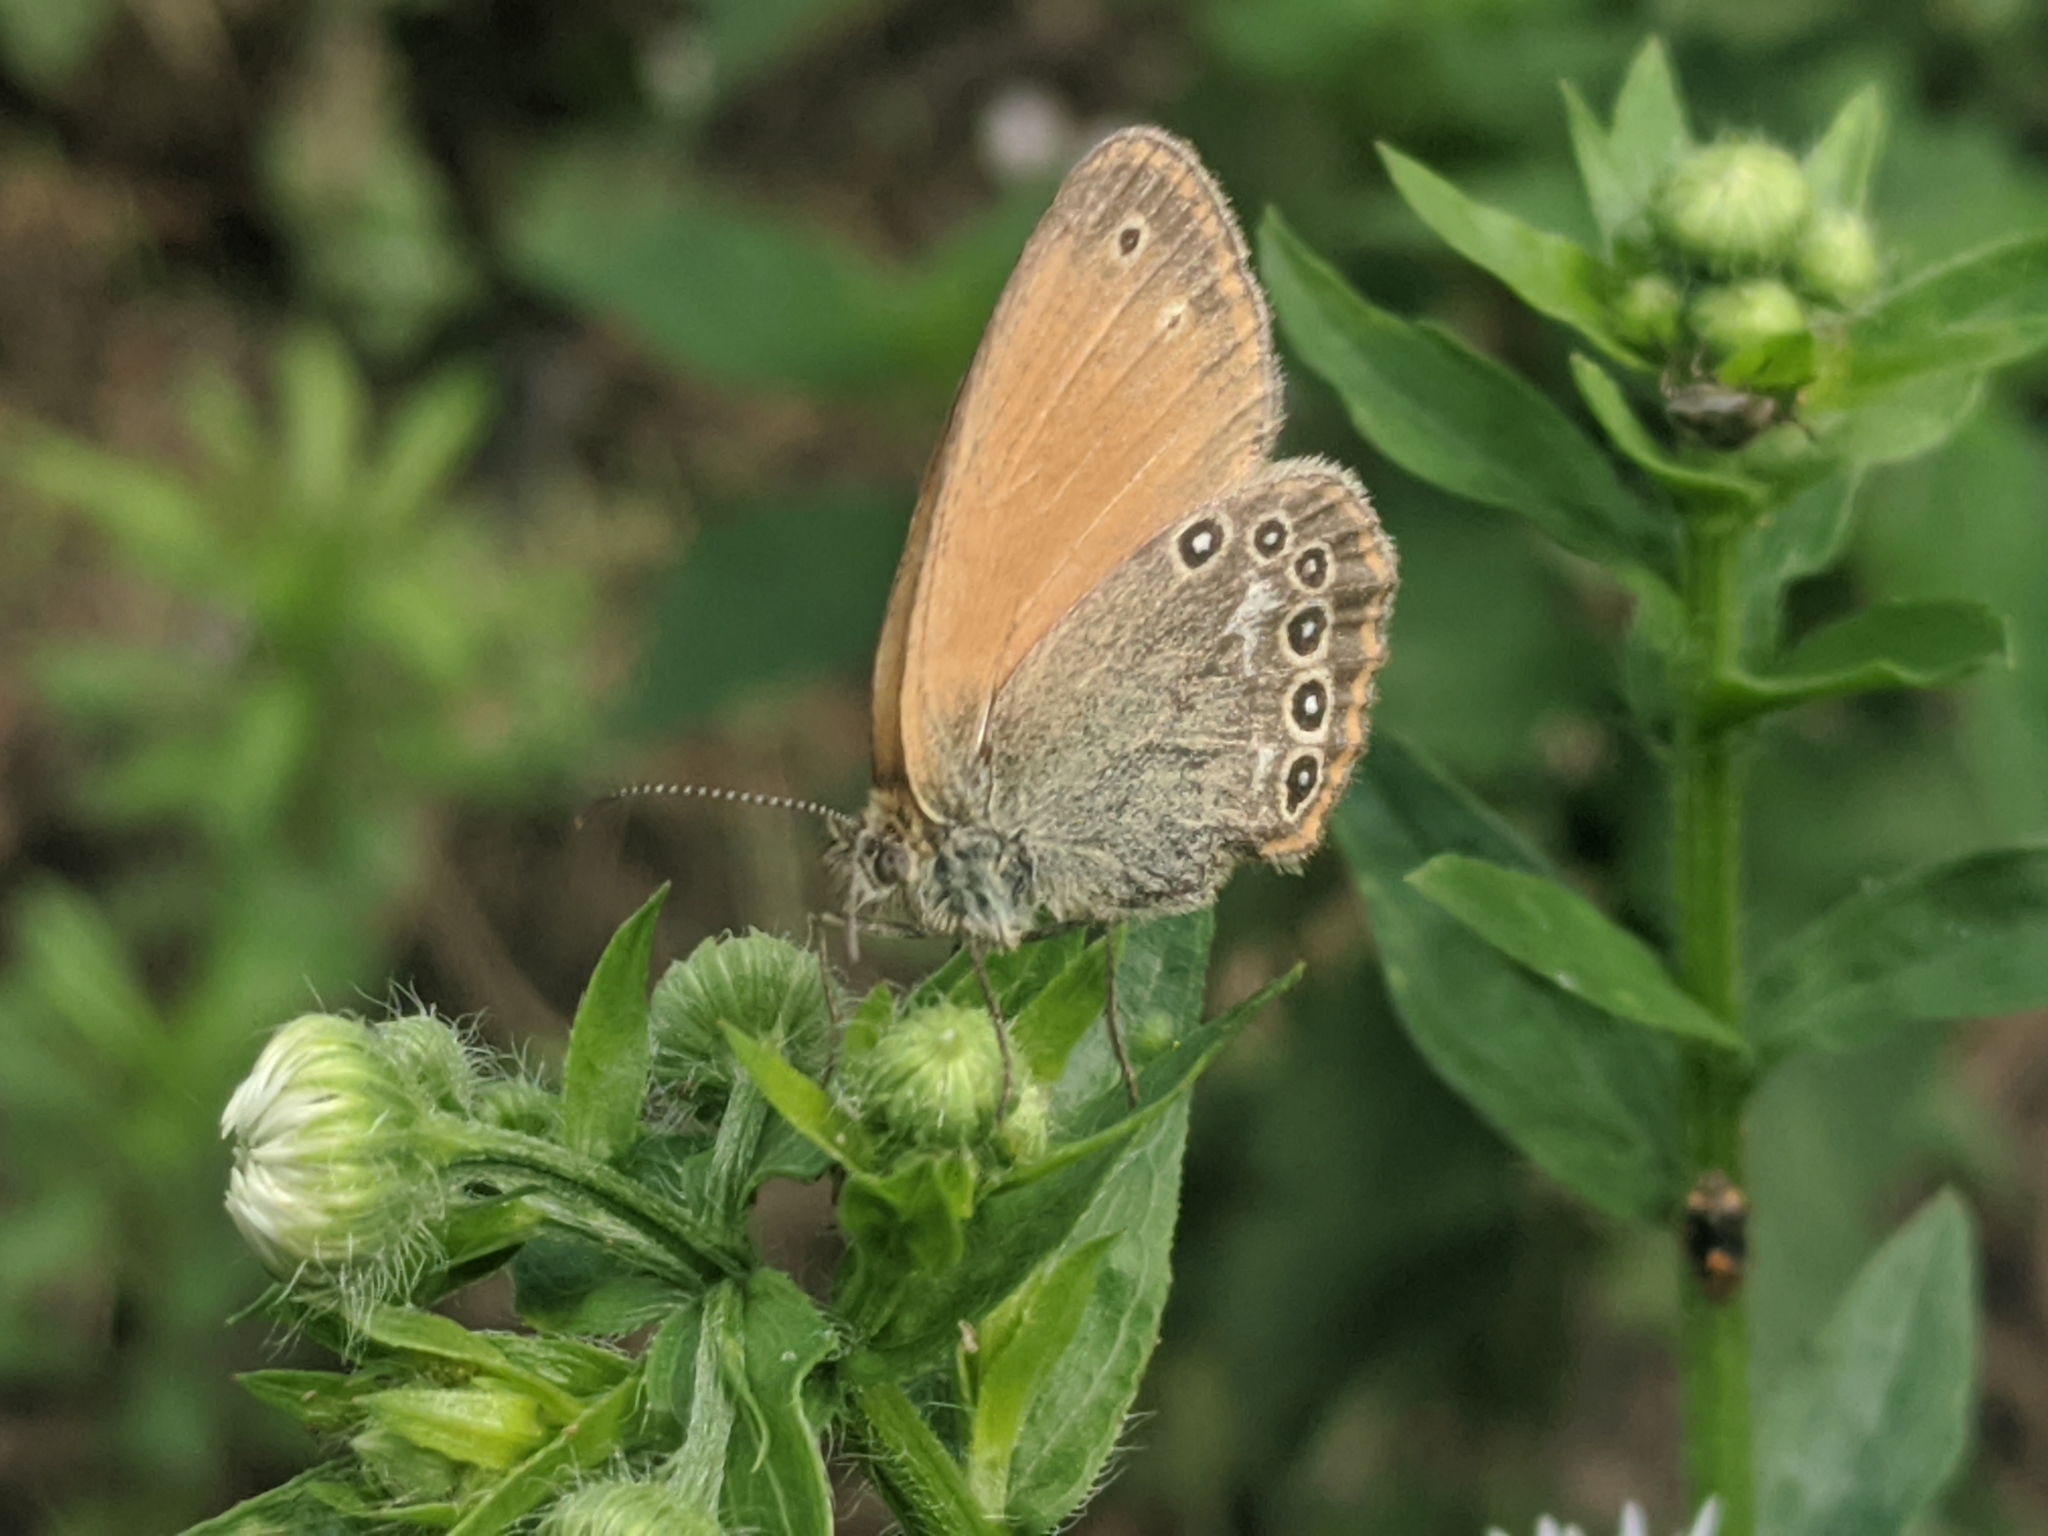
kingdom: Animalia
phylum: Arthropoda
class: Insecta
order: Lepidoptera
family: Nymphalidae
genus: Coenonympha
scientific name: Coenonympha iphis
